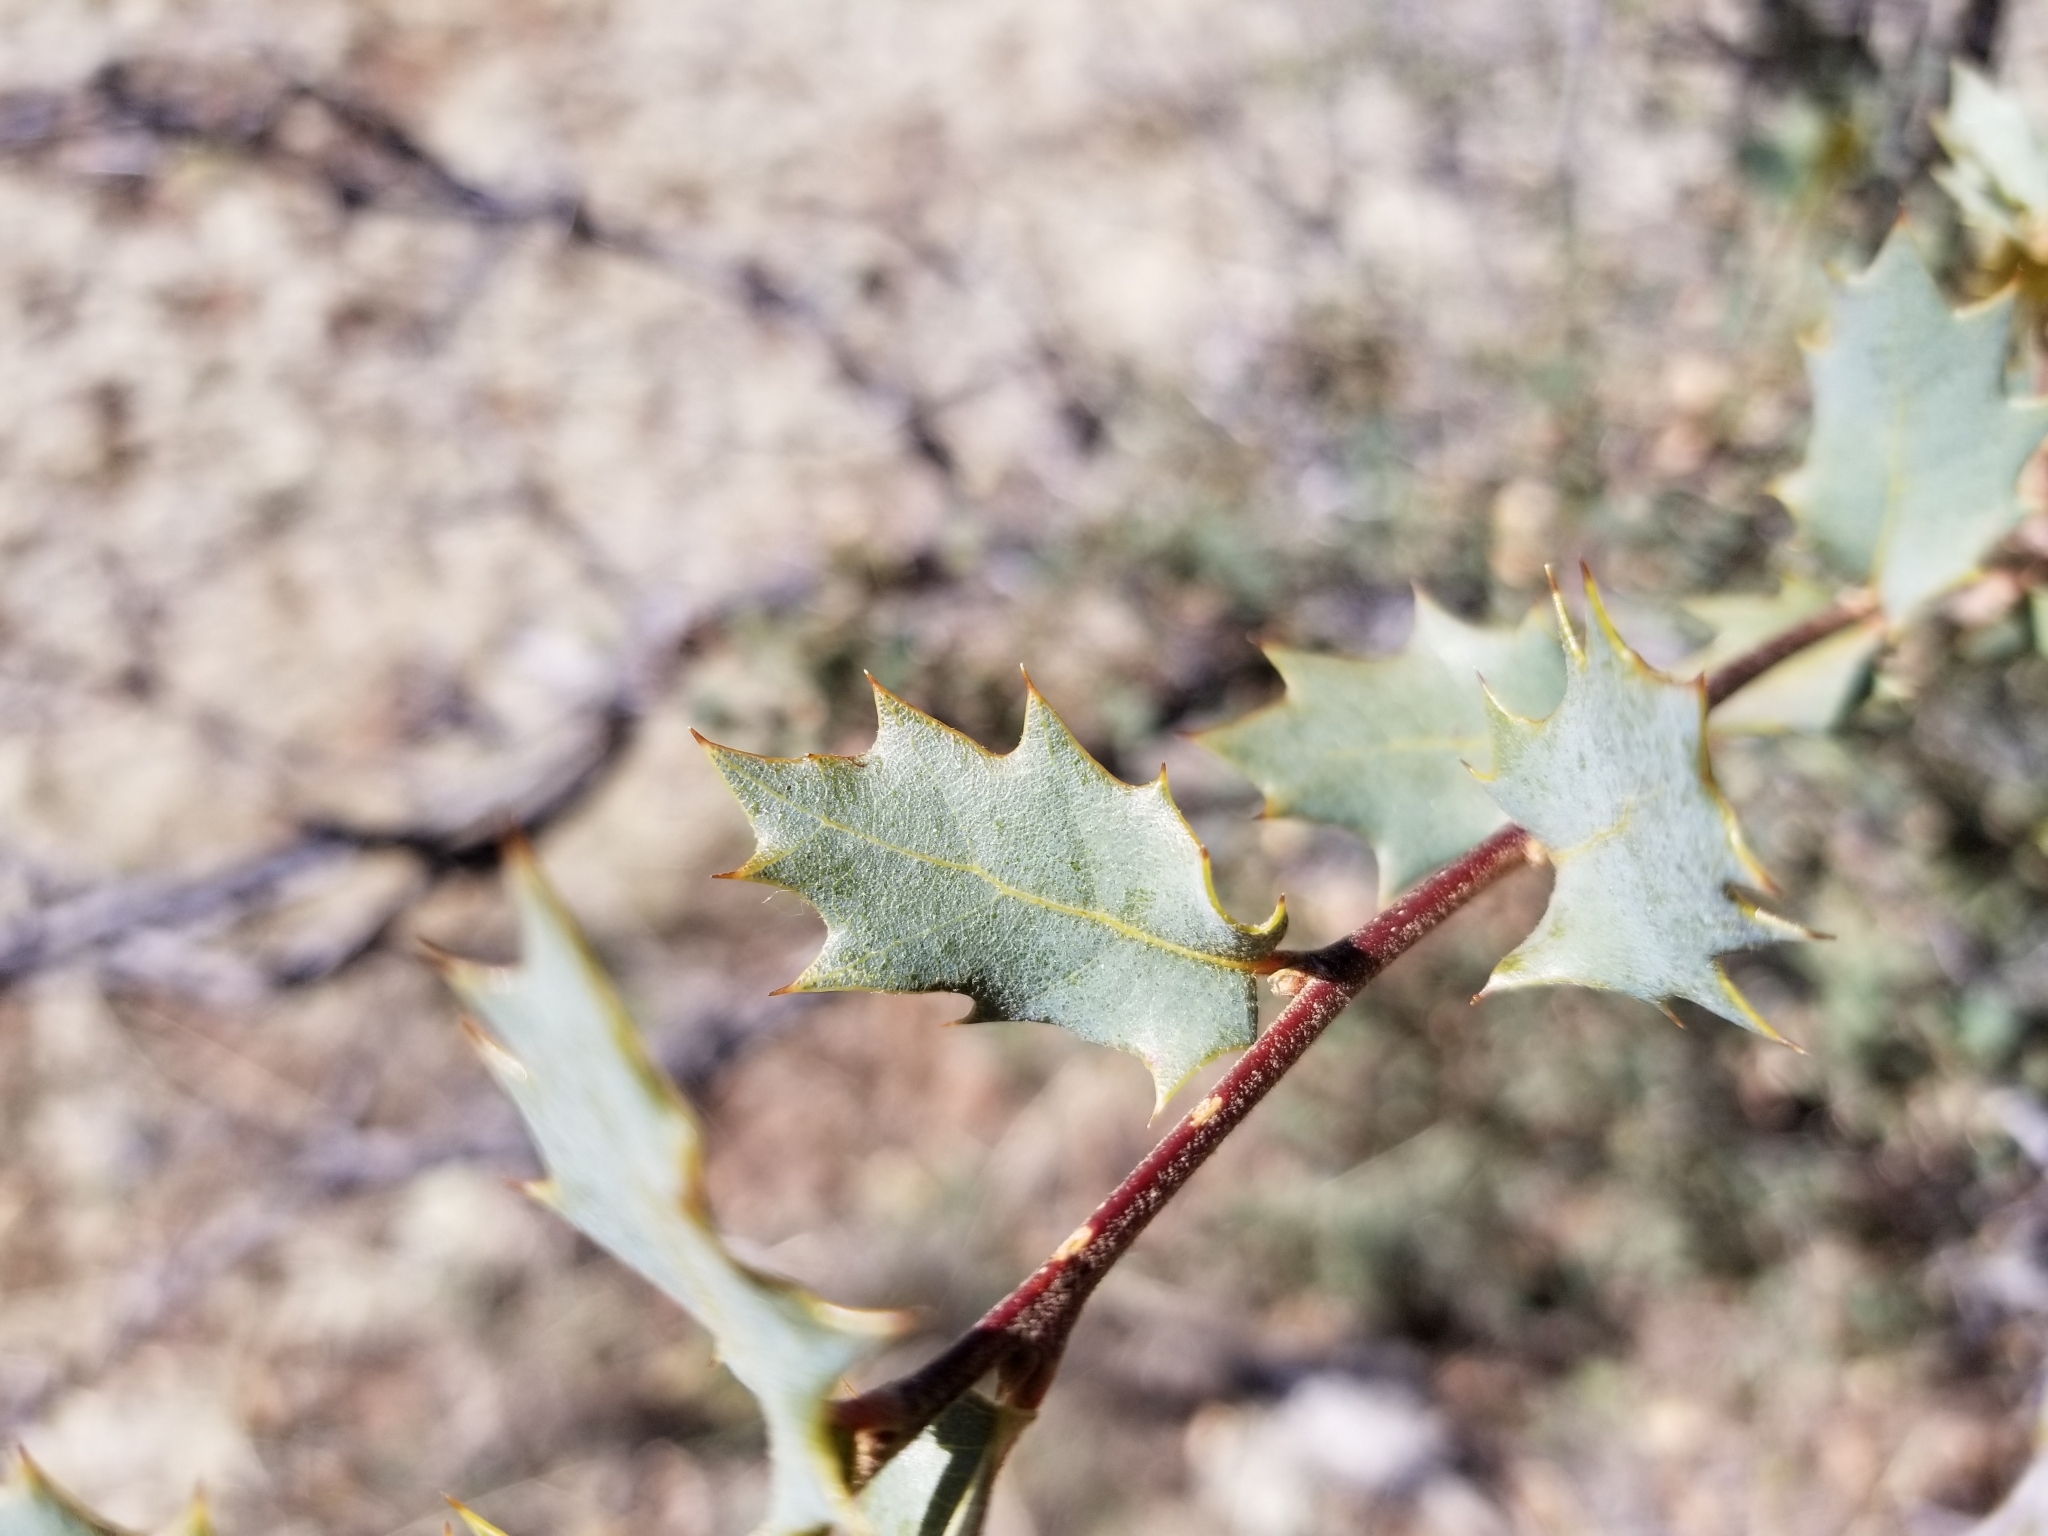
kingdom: Plantae
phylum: Tracheophyta
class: Magnoliopsida
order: Fagales
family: Fagaceae
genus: Quercus
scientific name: Quercus turbinella
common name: Sonoran scrub oak
